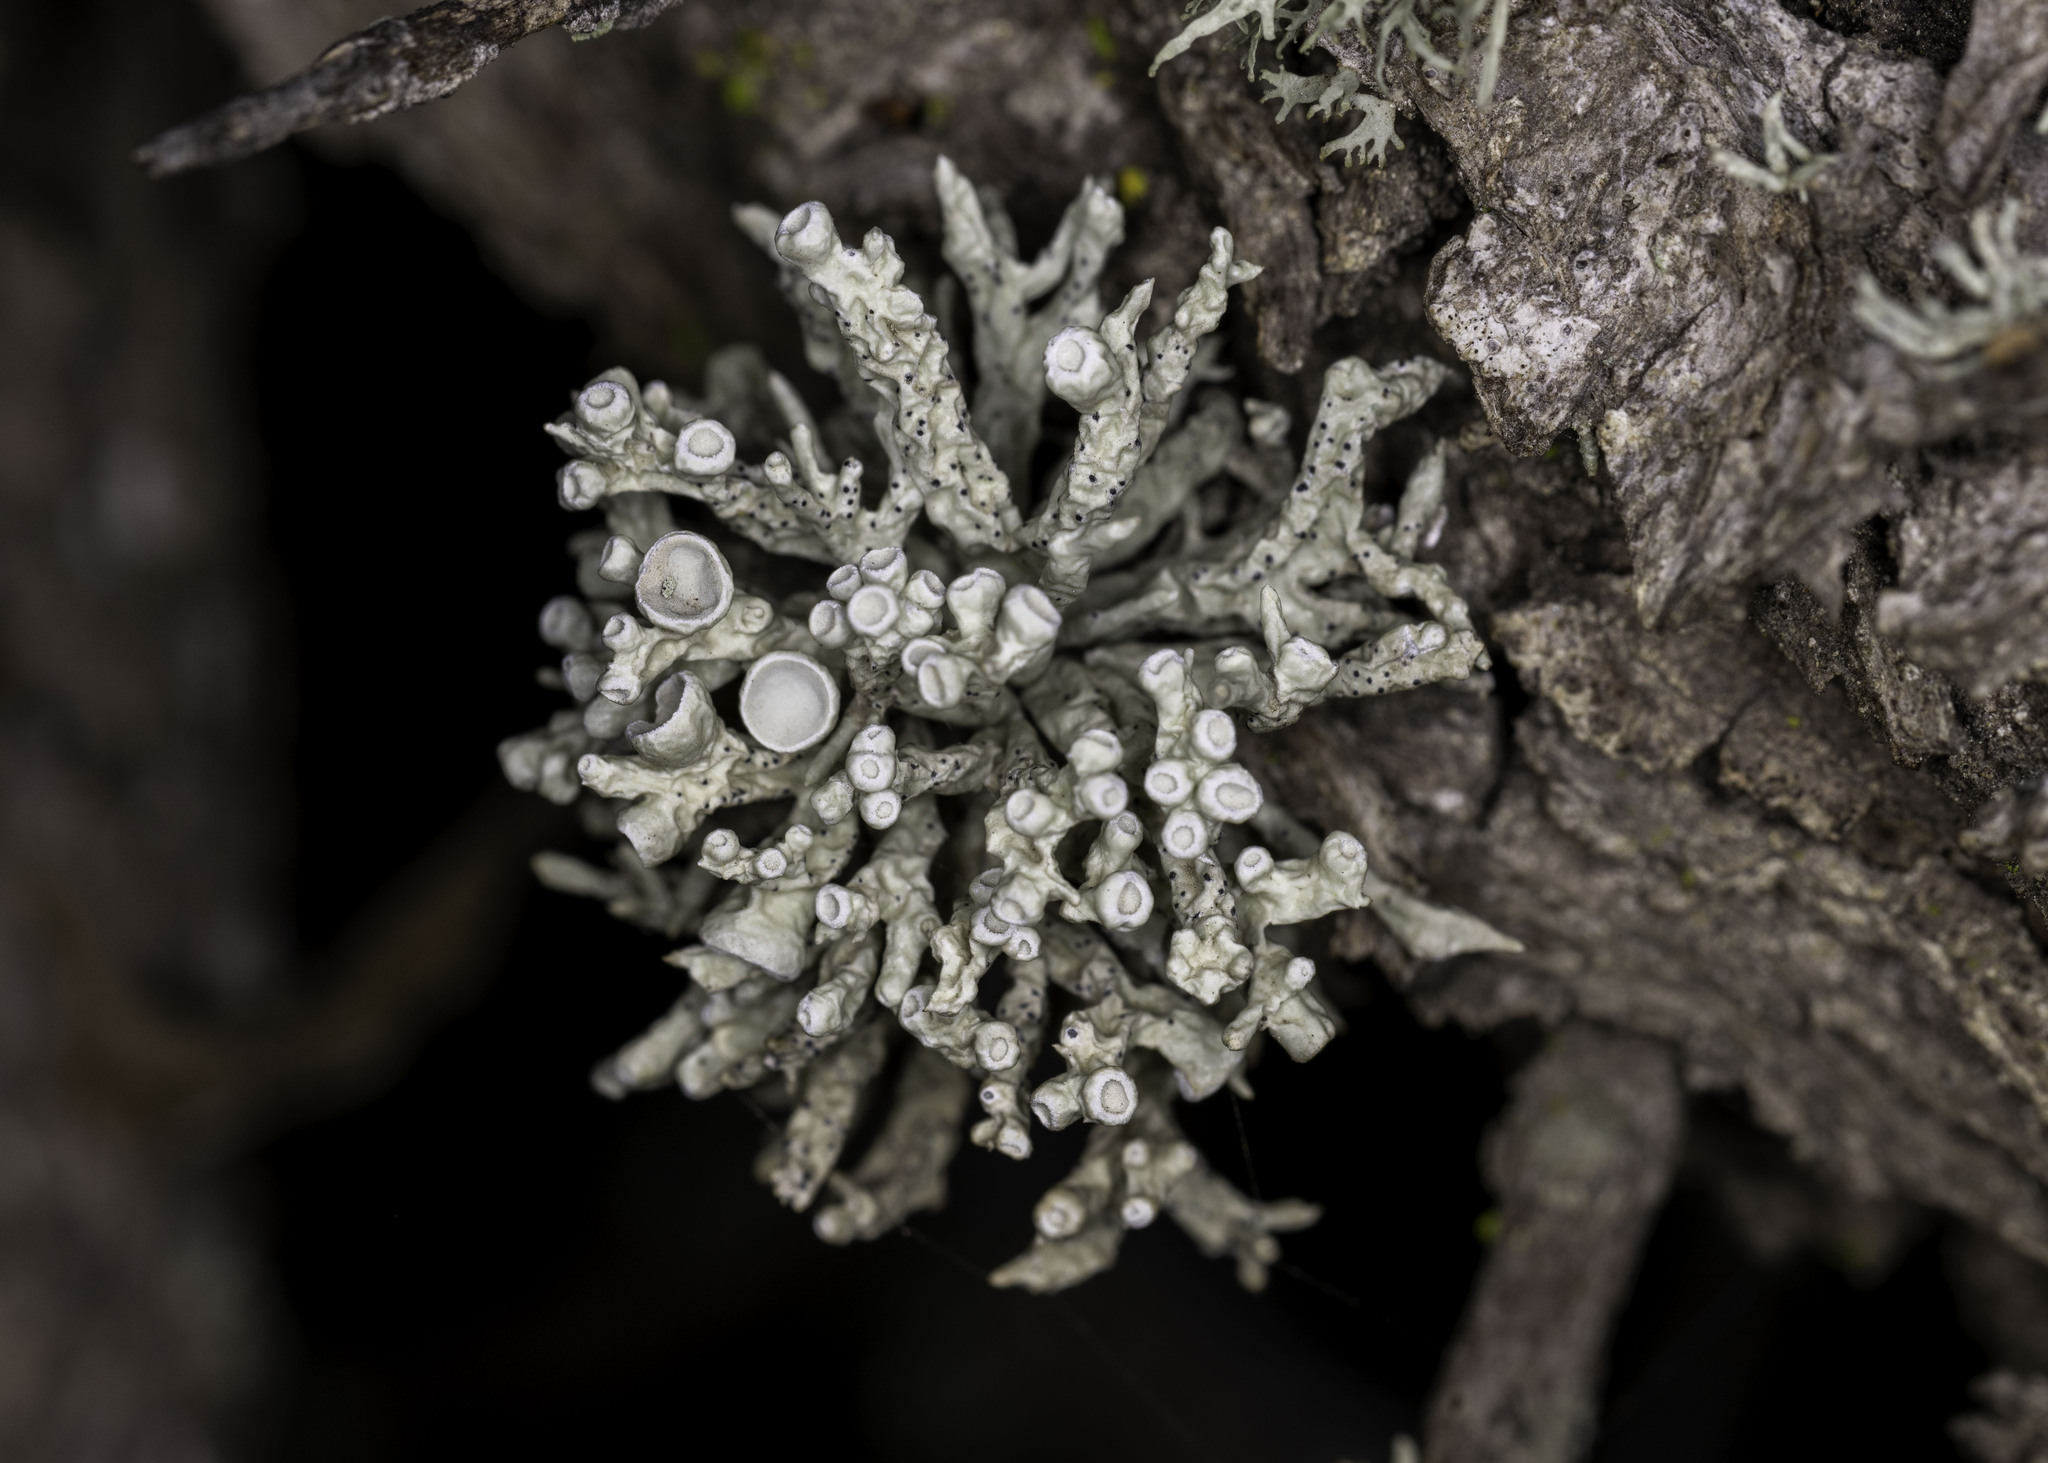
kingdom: Fungi
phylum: Ascomycota
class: Lecanoromycetes
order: Lecanorales
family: Ramalinaceae
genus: Niebla
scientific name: Niebla ceruchis
